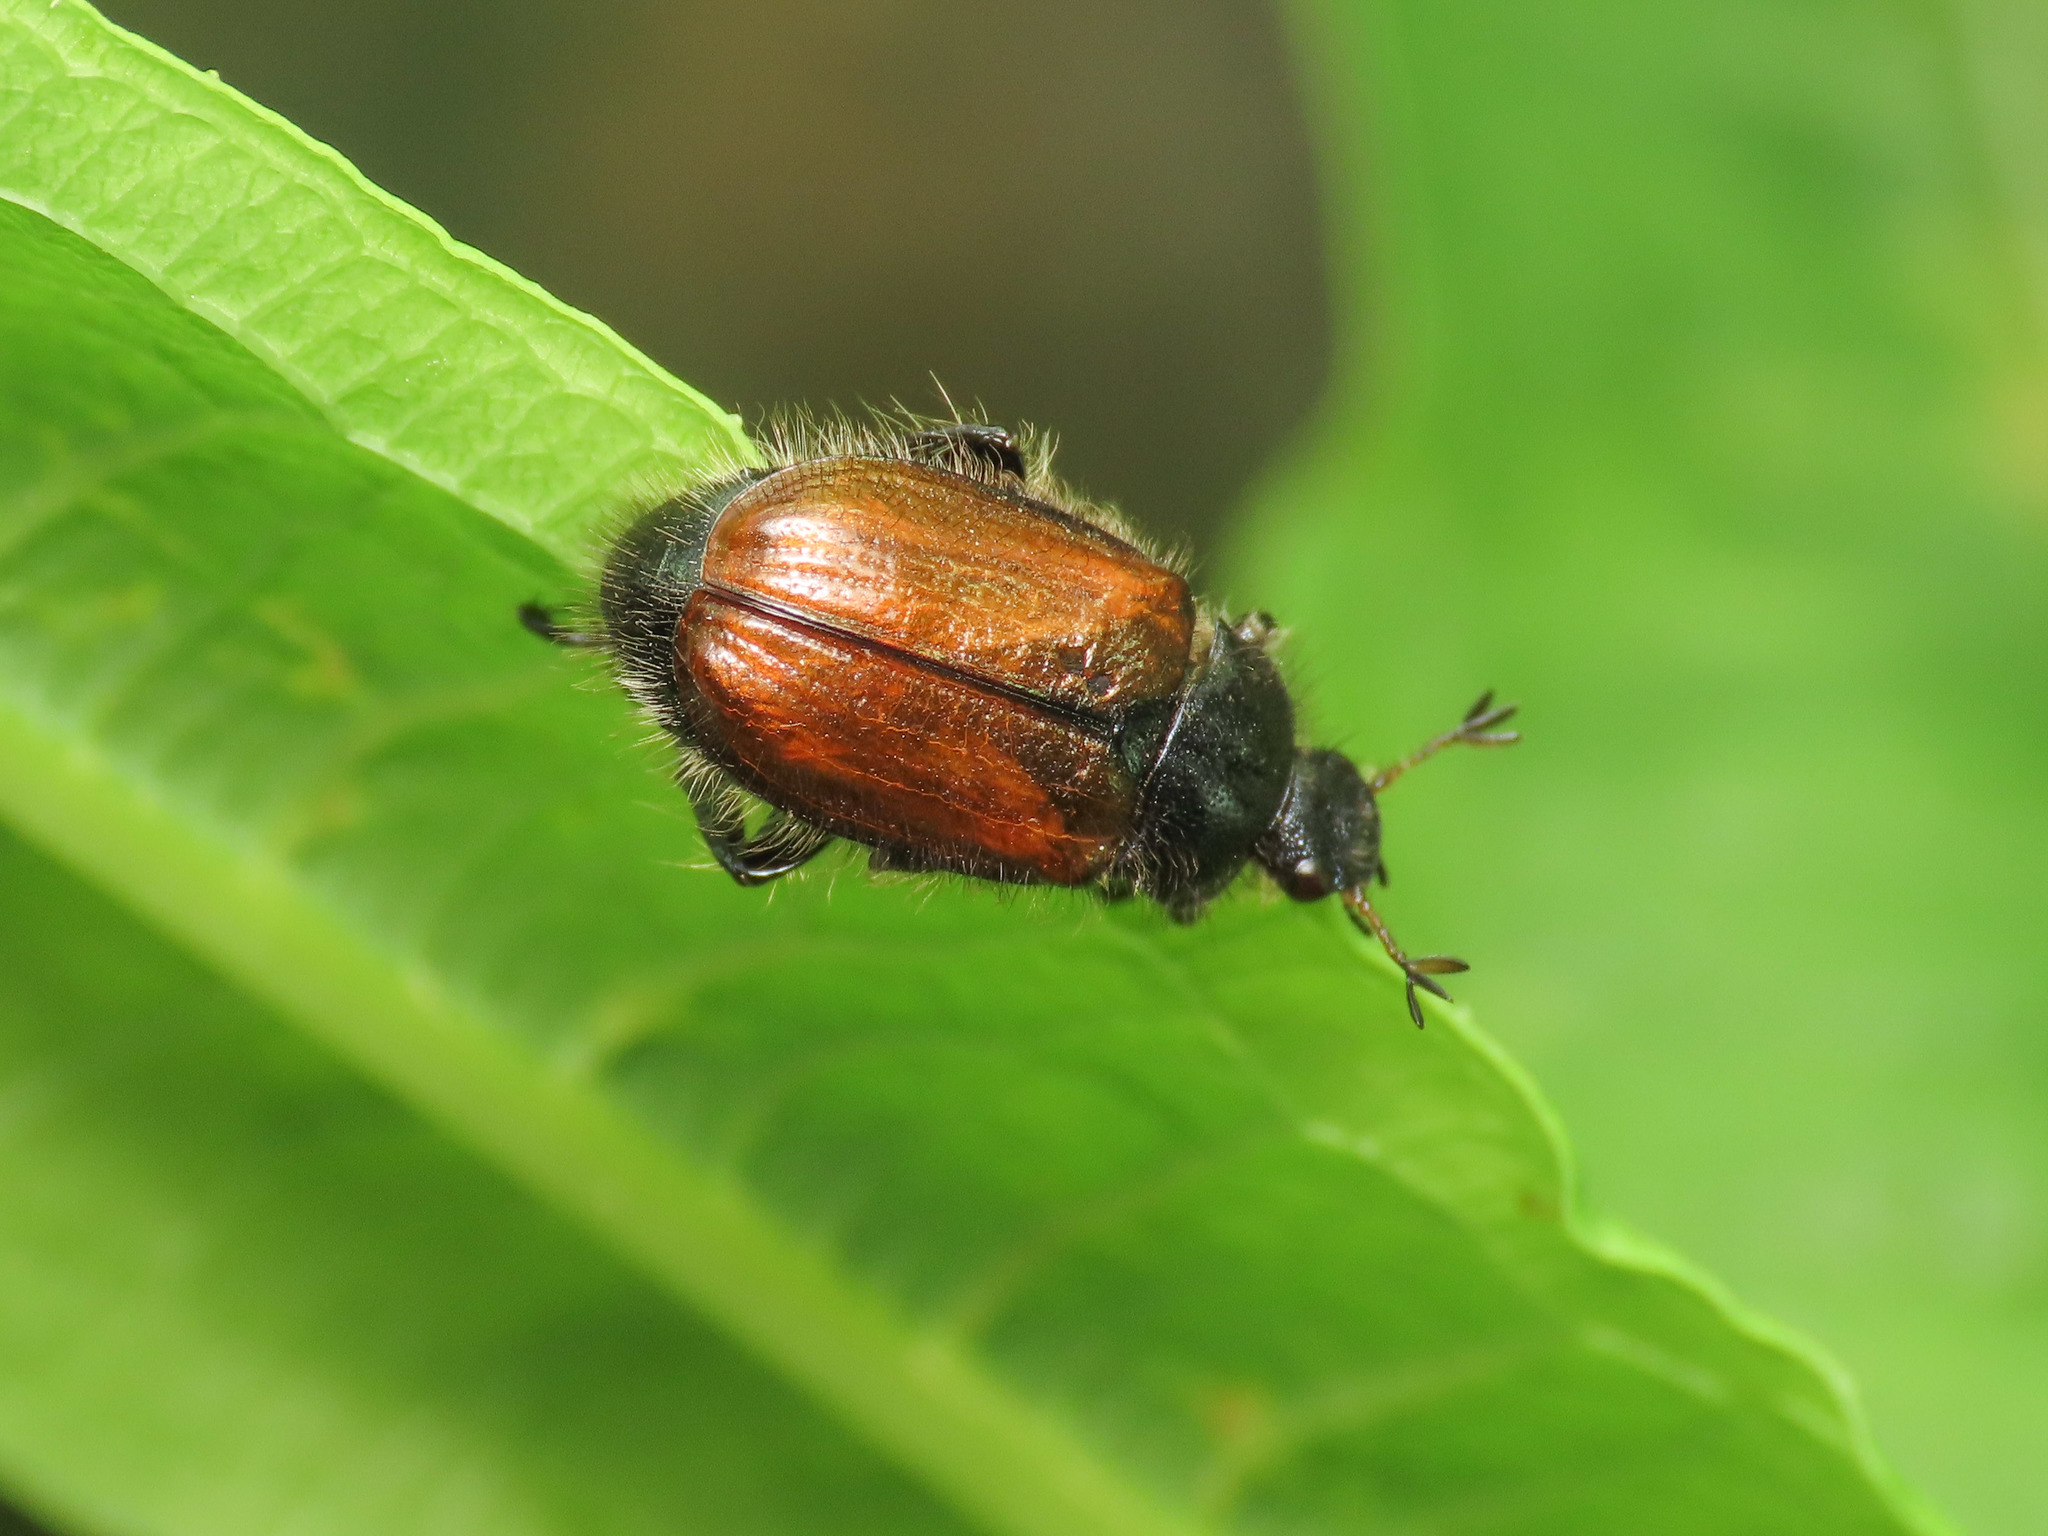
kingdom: Animalia
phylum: Arthropoda
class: Insecta
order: Coleoptera
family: Scarabaeidae
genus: Phyllopertha
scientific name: Phyllopertha horticola
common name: Garden chafer
